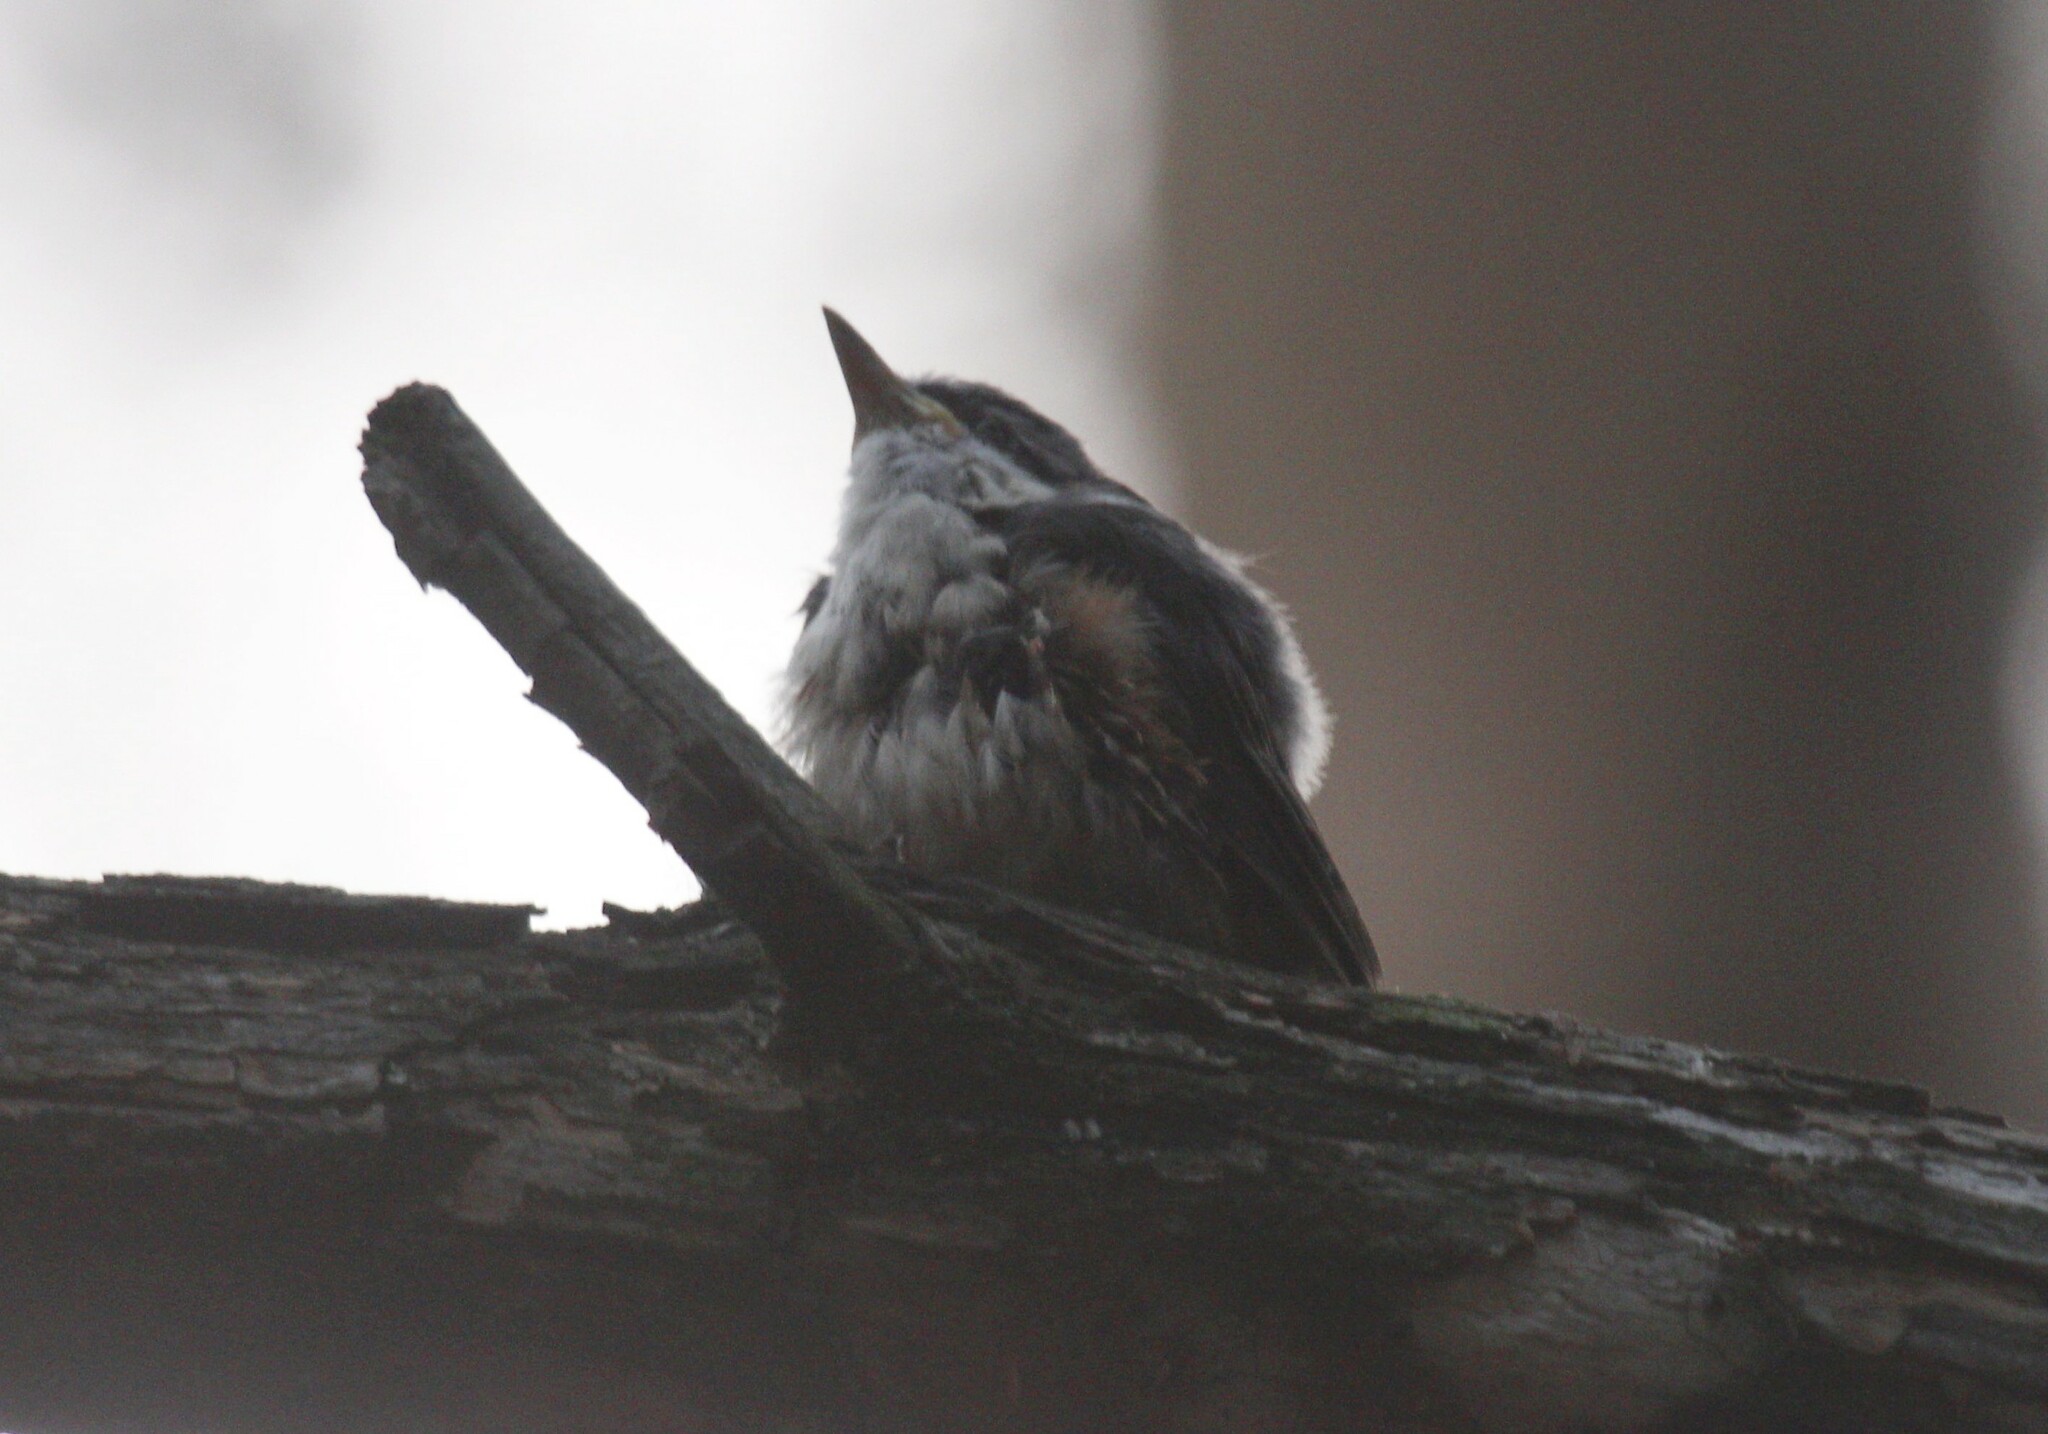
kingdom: Animalia
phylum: Chordata
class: Aves
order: Passeriformes
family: Sittidae
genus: Sitta
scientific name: Sitta europaea
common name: Eurasian nuthatch
